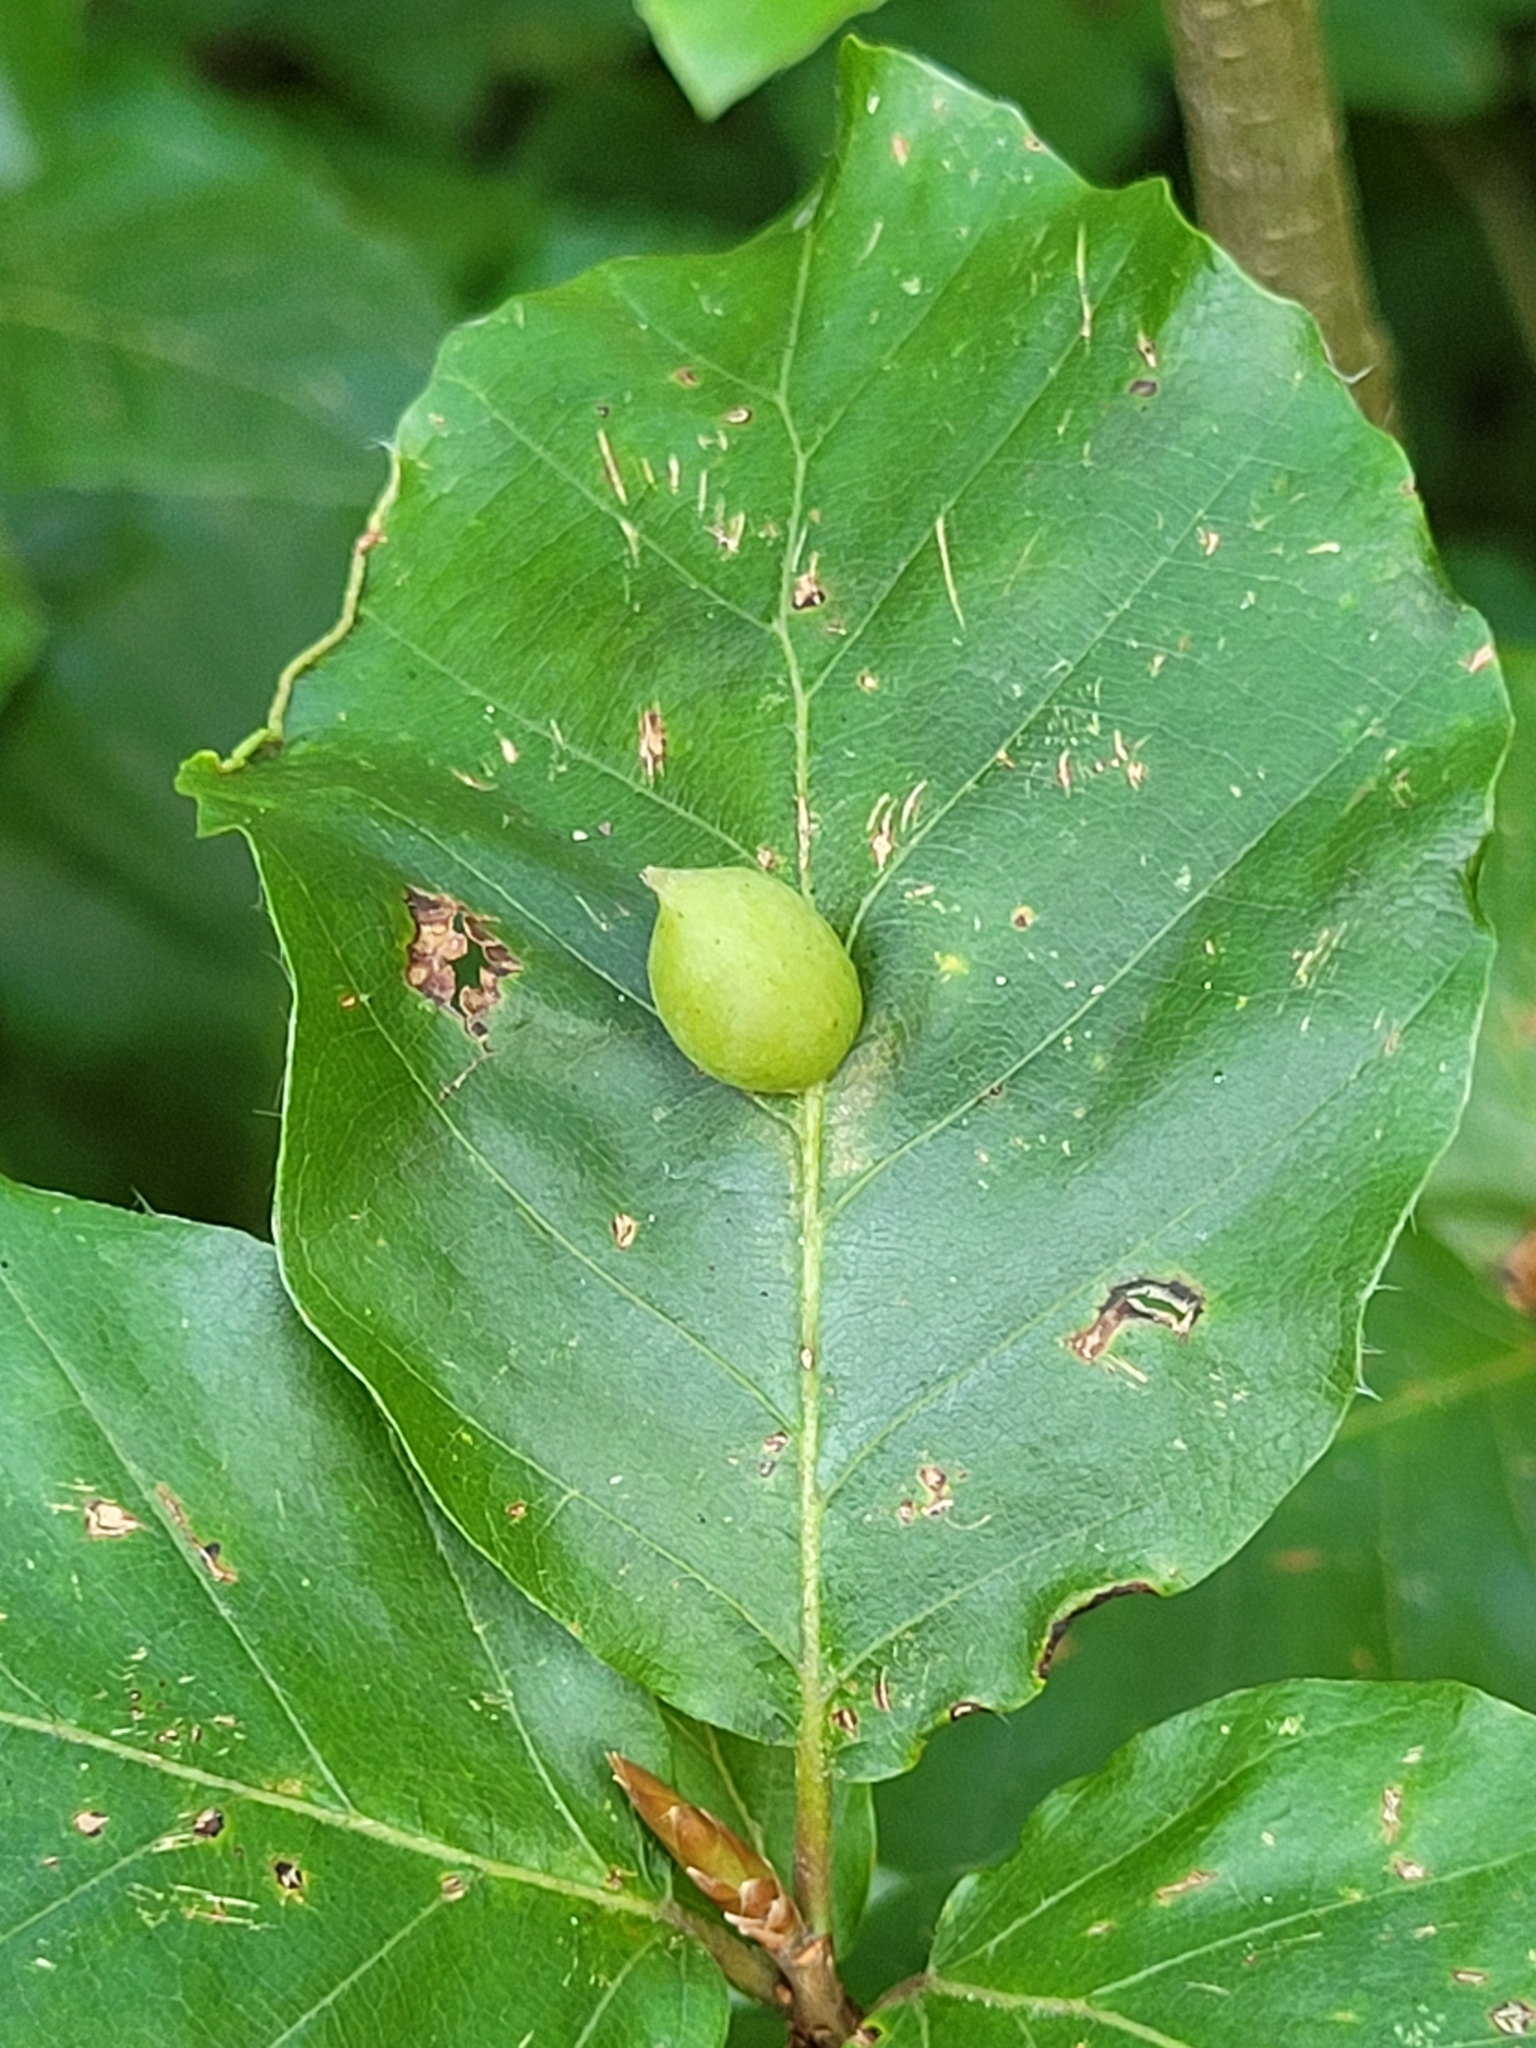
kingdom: Animalia
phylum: Arthropoda
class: Insecta
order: Diptera
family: Cecidomyiidae
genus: Mikiola
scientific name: Mikiola fagi
